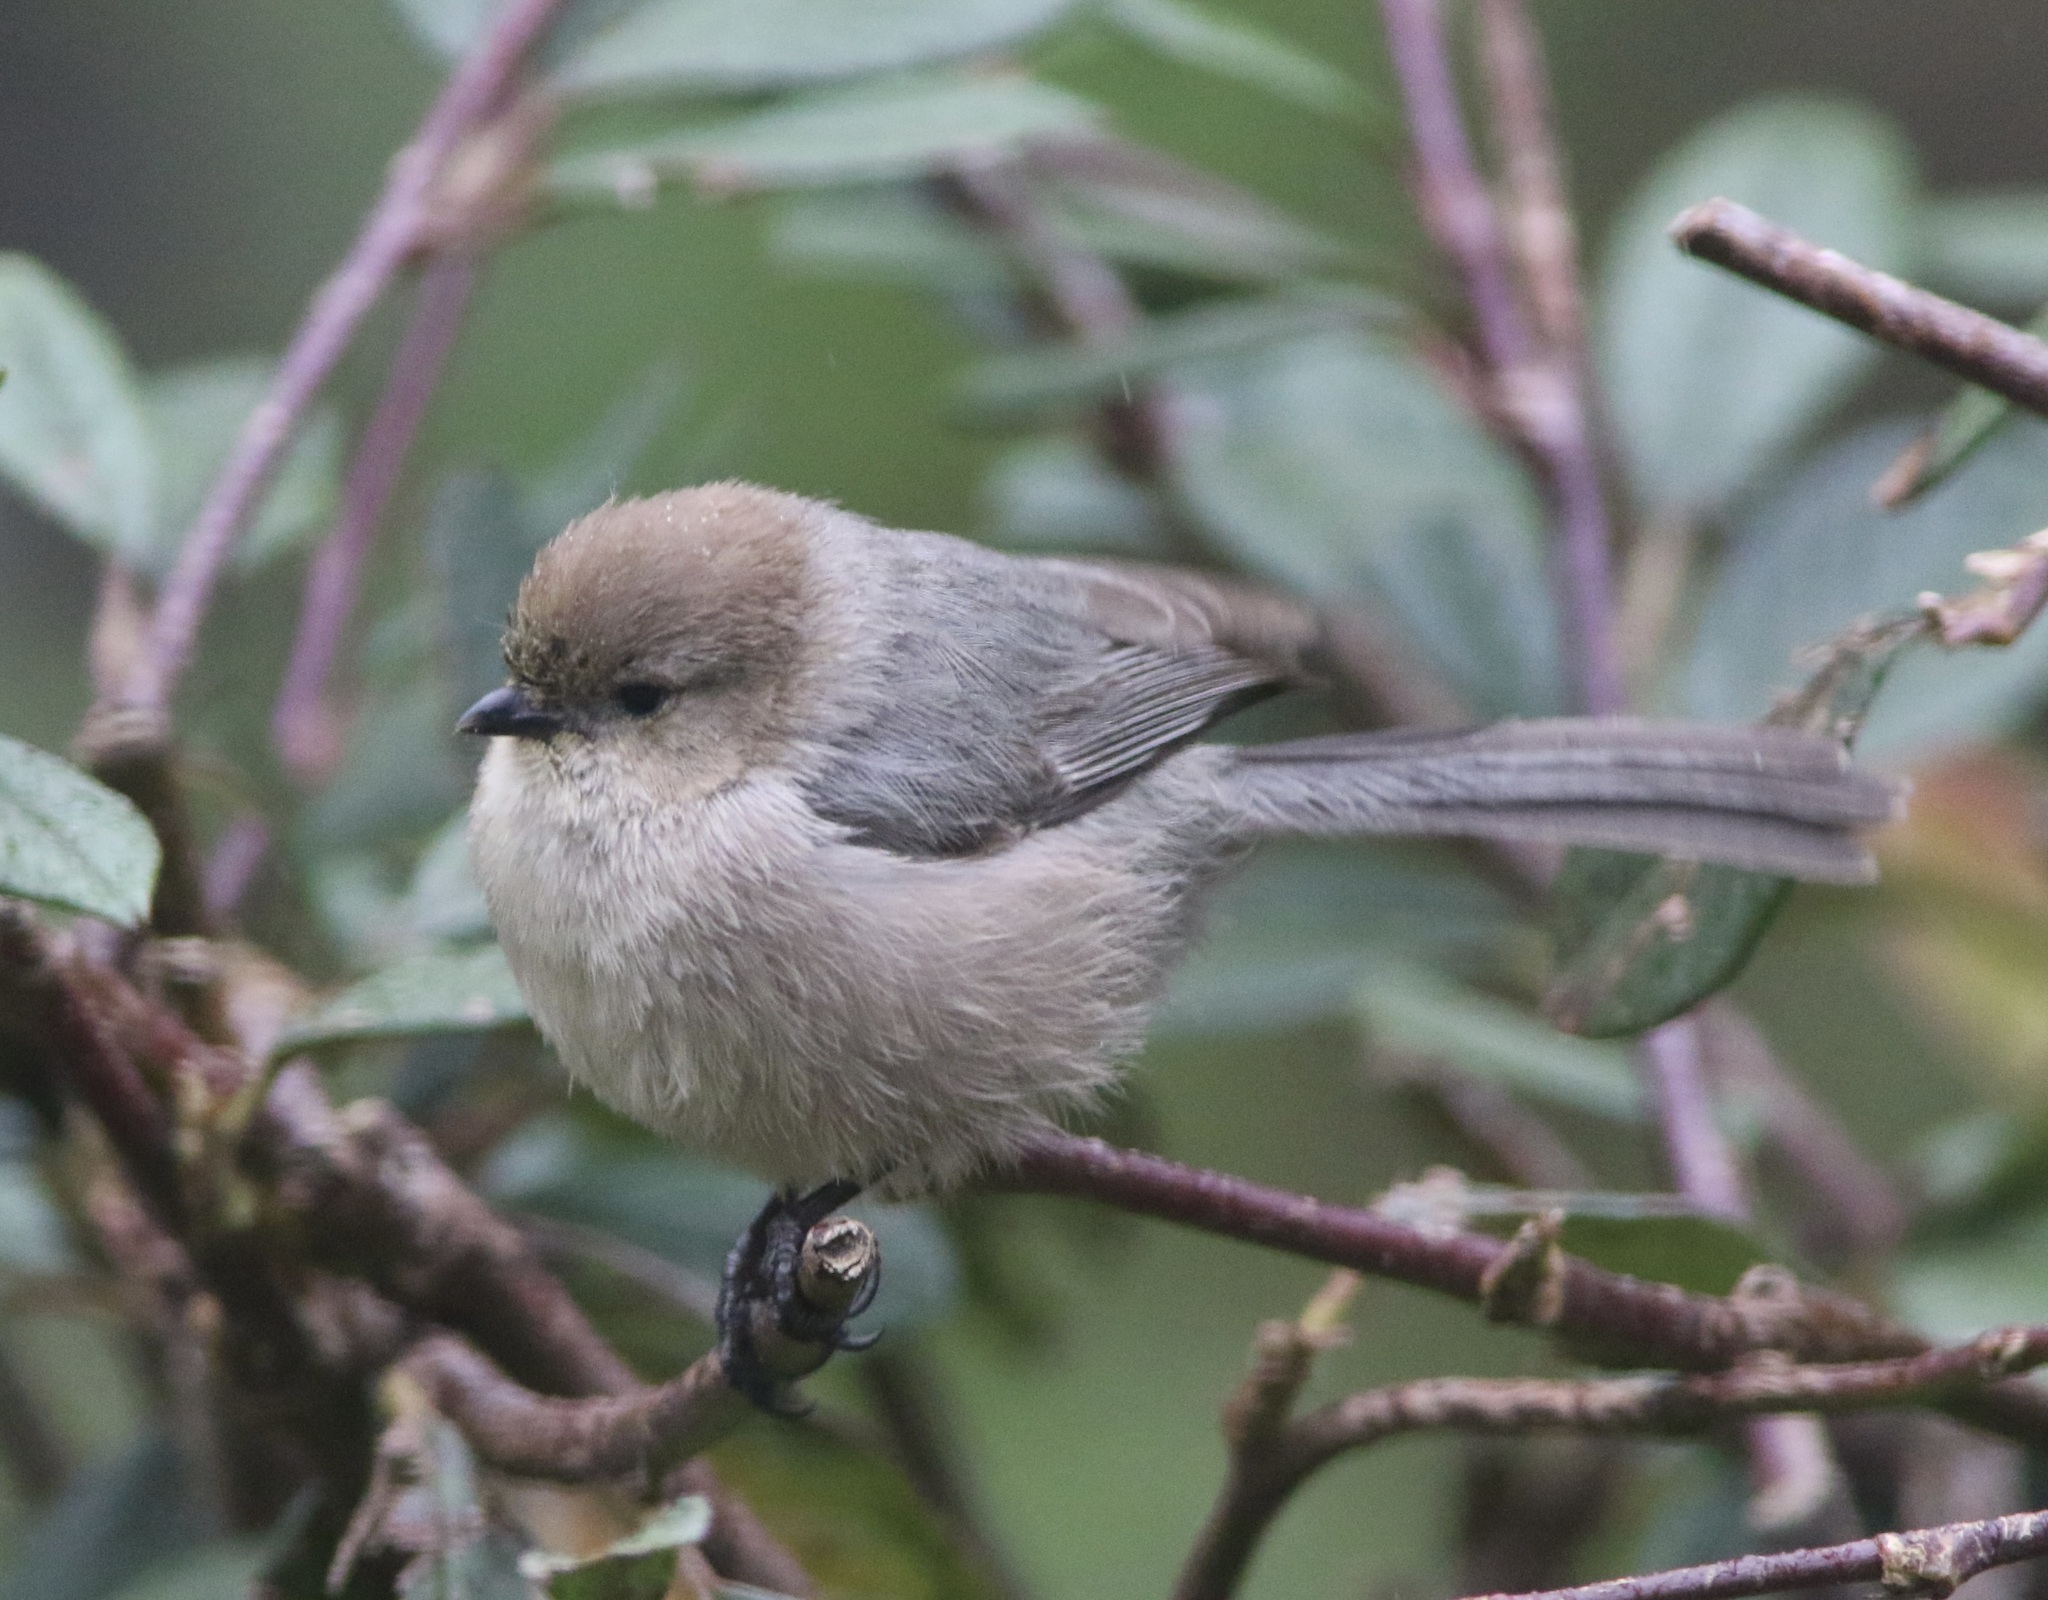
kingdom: Animalia
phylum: Chordata
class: Aves
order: Passeriformes
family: Aegithalidae
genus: Psaltriparus
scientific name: Psaltriparus minimus
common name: American bushtit
